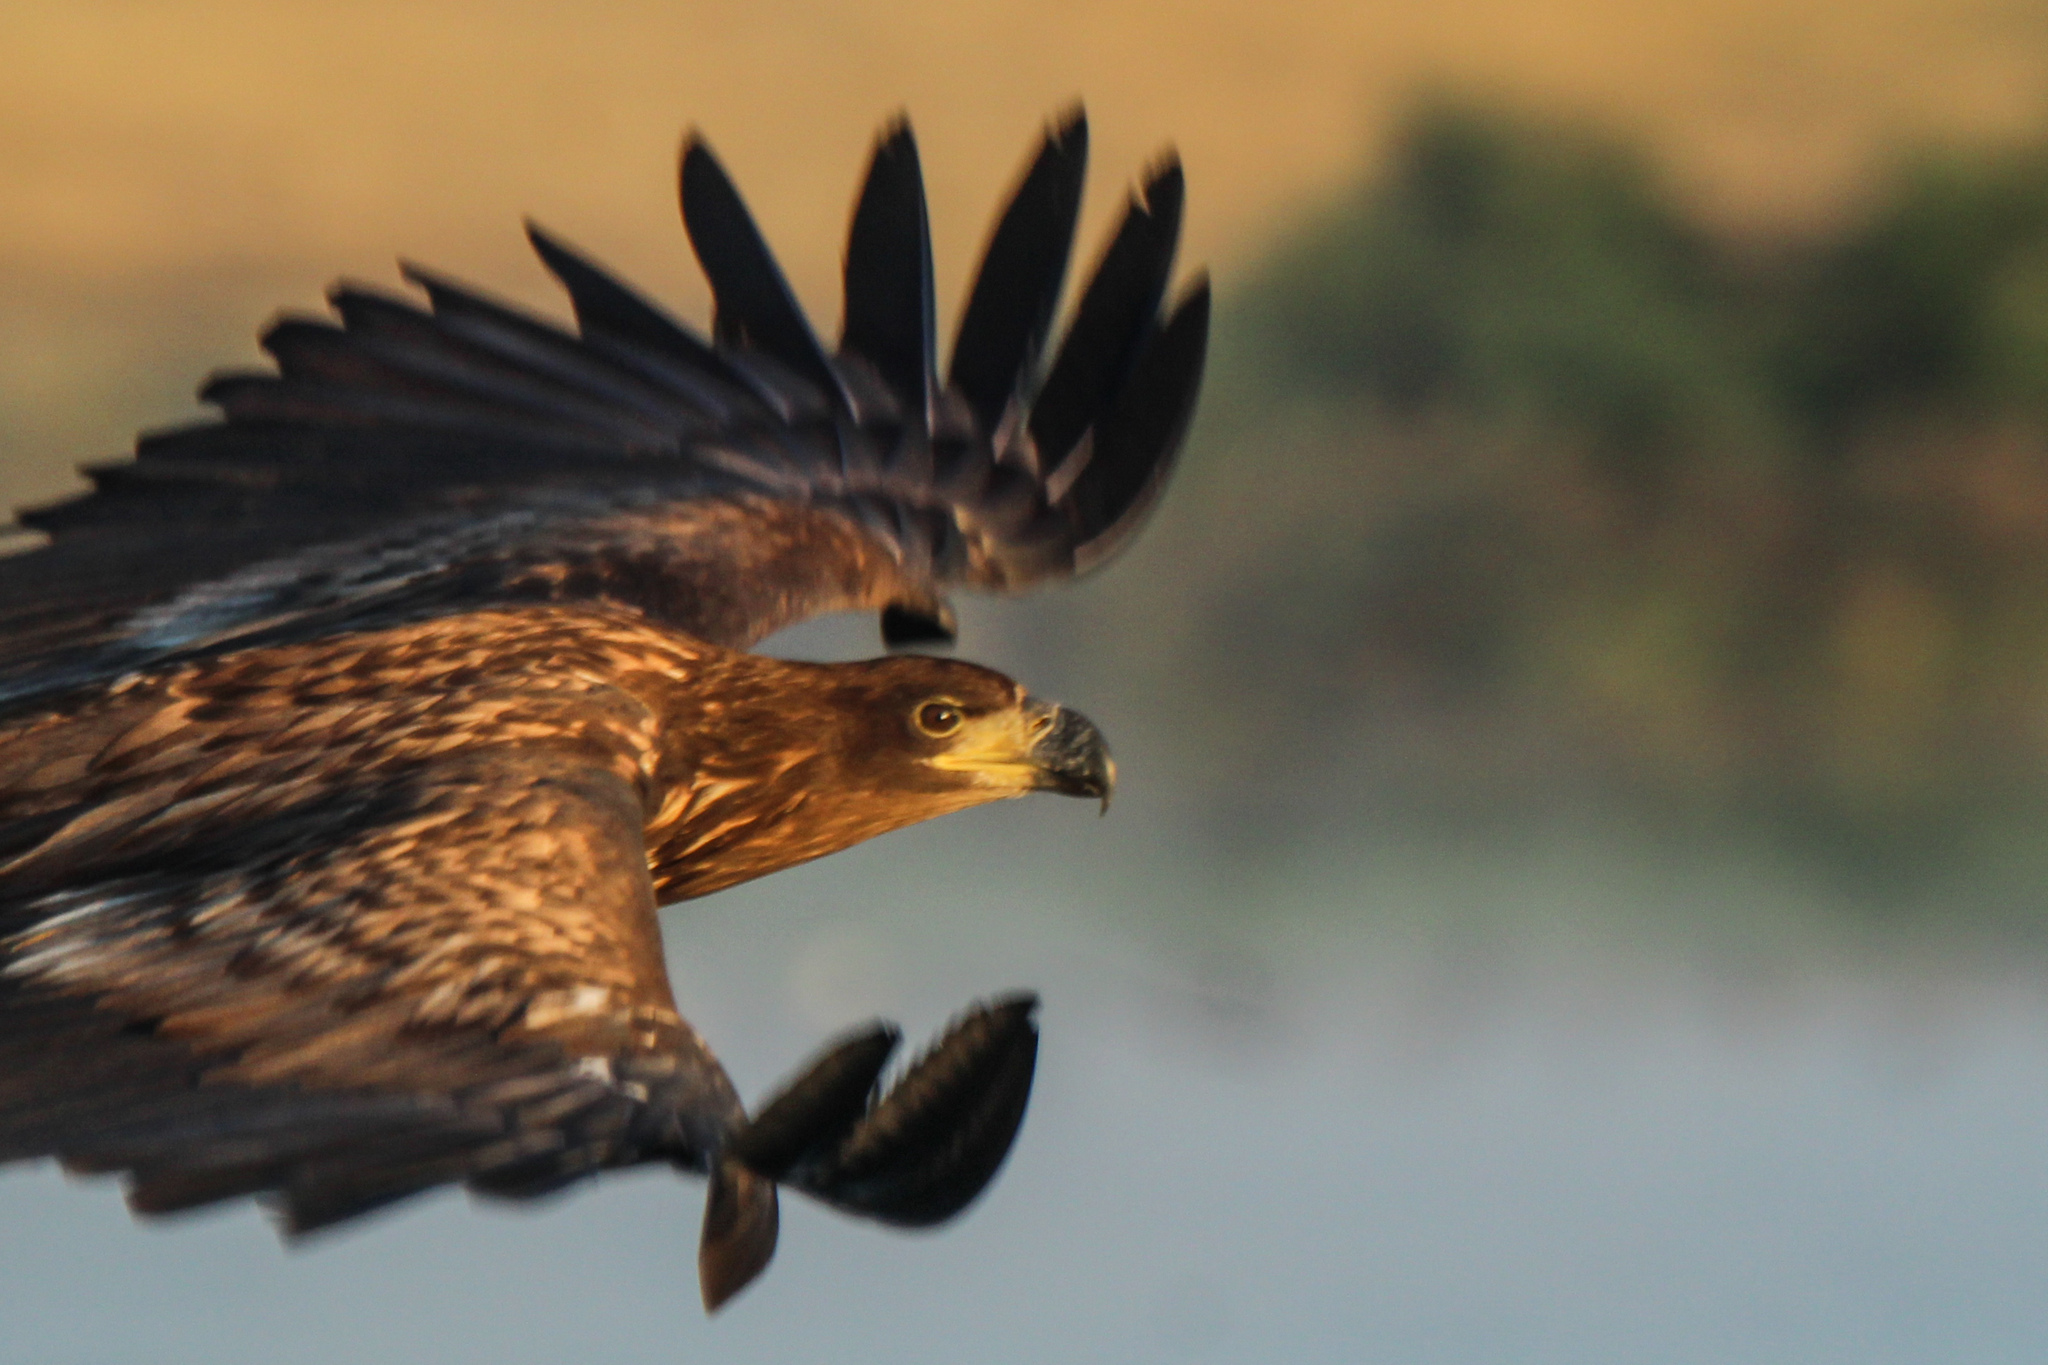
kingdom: Animalia
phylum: Chordata
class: Aves
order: Accipitriformes
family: Accipitridae
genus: Haliaeetus
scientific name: Haliaeetus albicilla
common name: White-tailed eagle
